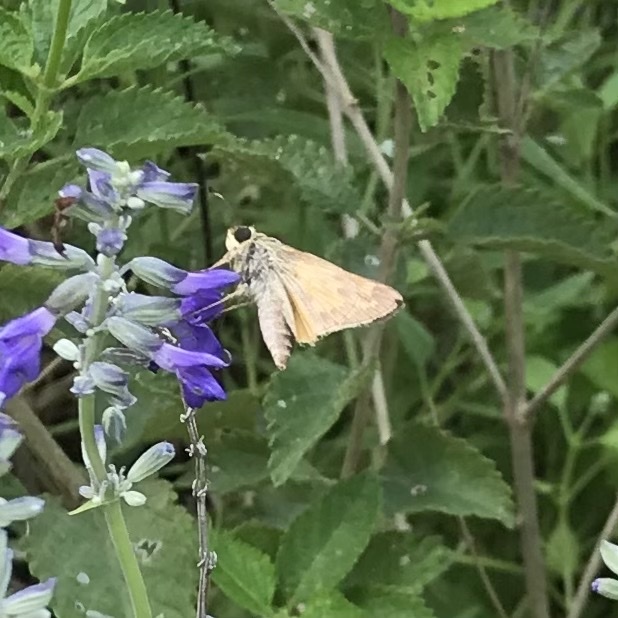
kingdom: Animalia
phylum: Arthropoda
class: Insecta
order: Lepidoptera
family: Hesperiidae
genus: Atalopedes
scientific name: Atalopedes
